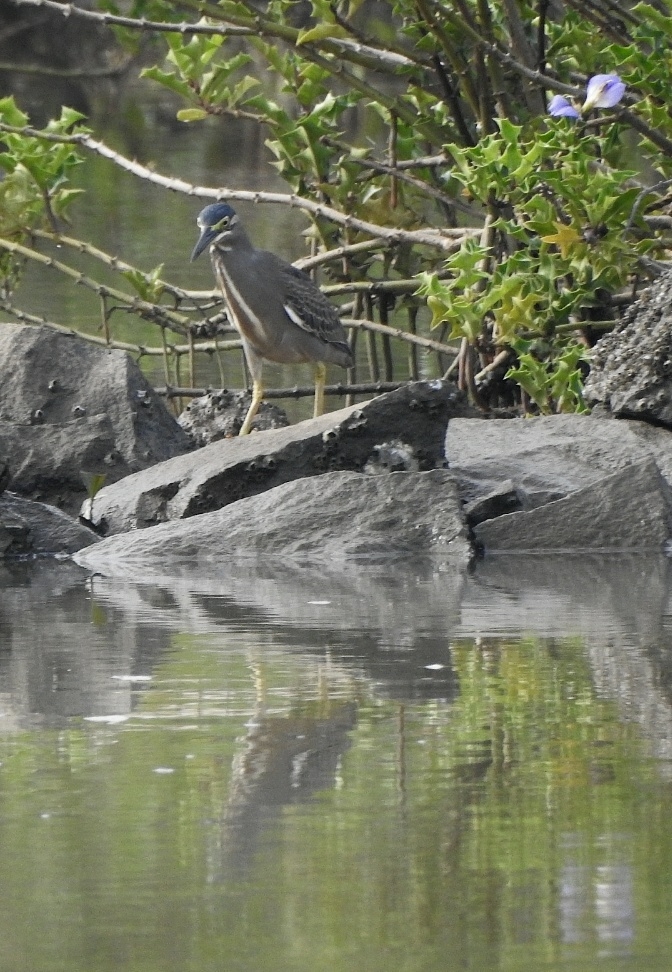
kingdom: Animalia
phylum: Chordata
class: Aves
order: Pelecaniformes
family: Ardeidae
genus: Butorides
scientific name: Butorides striata
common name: Striated heron
